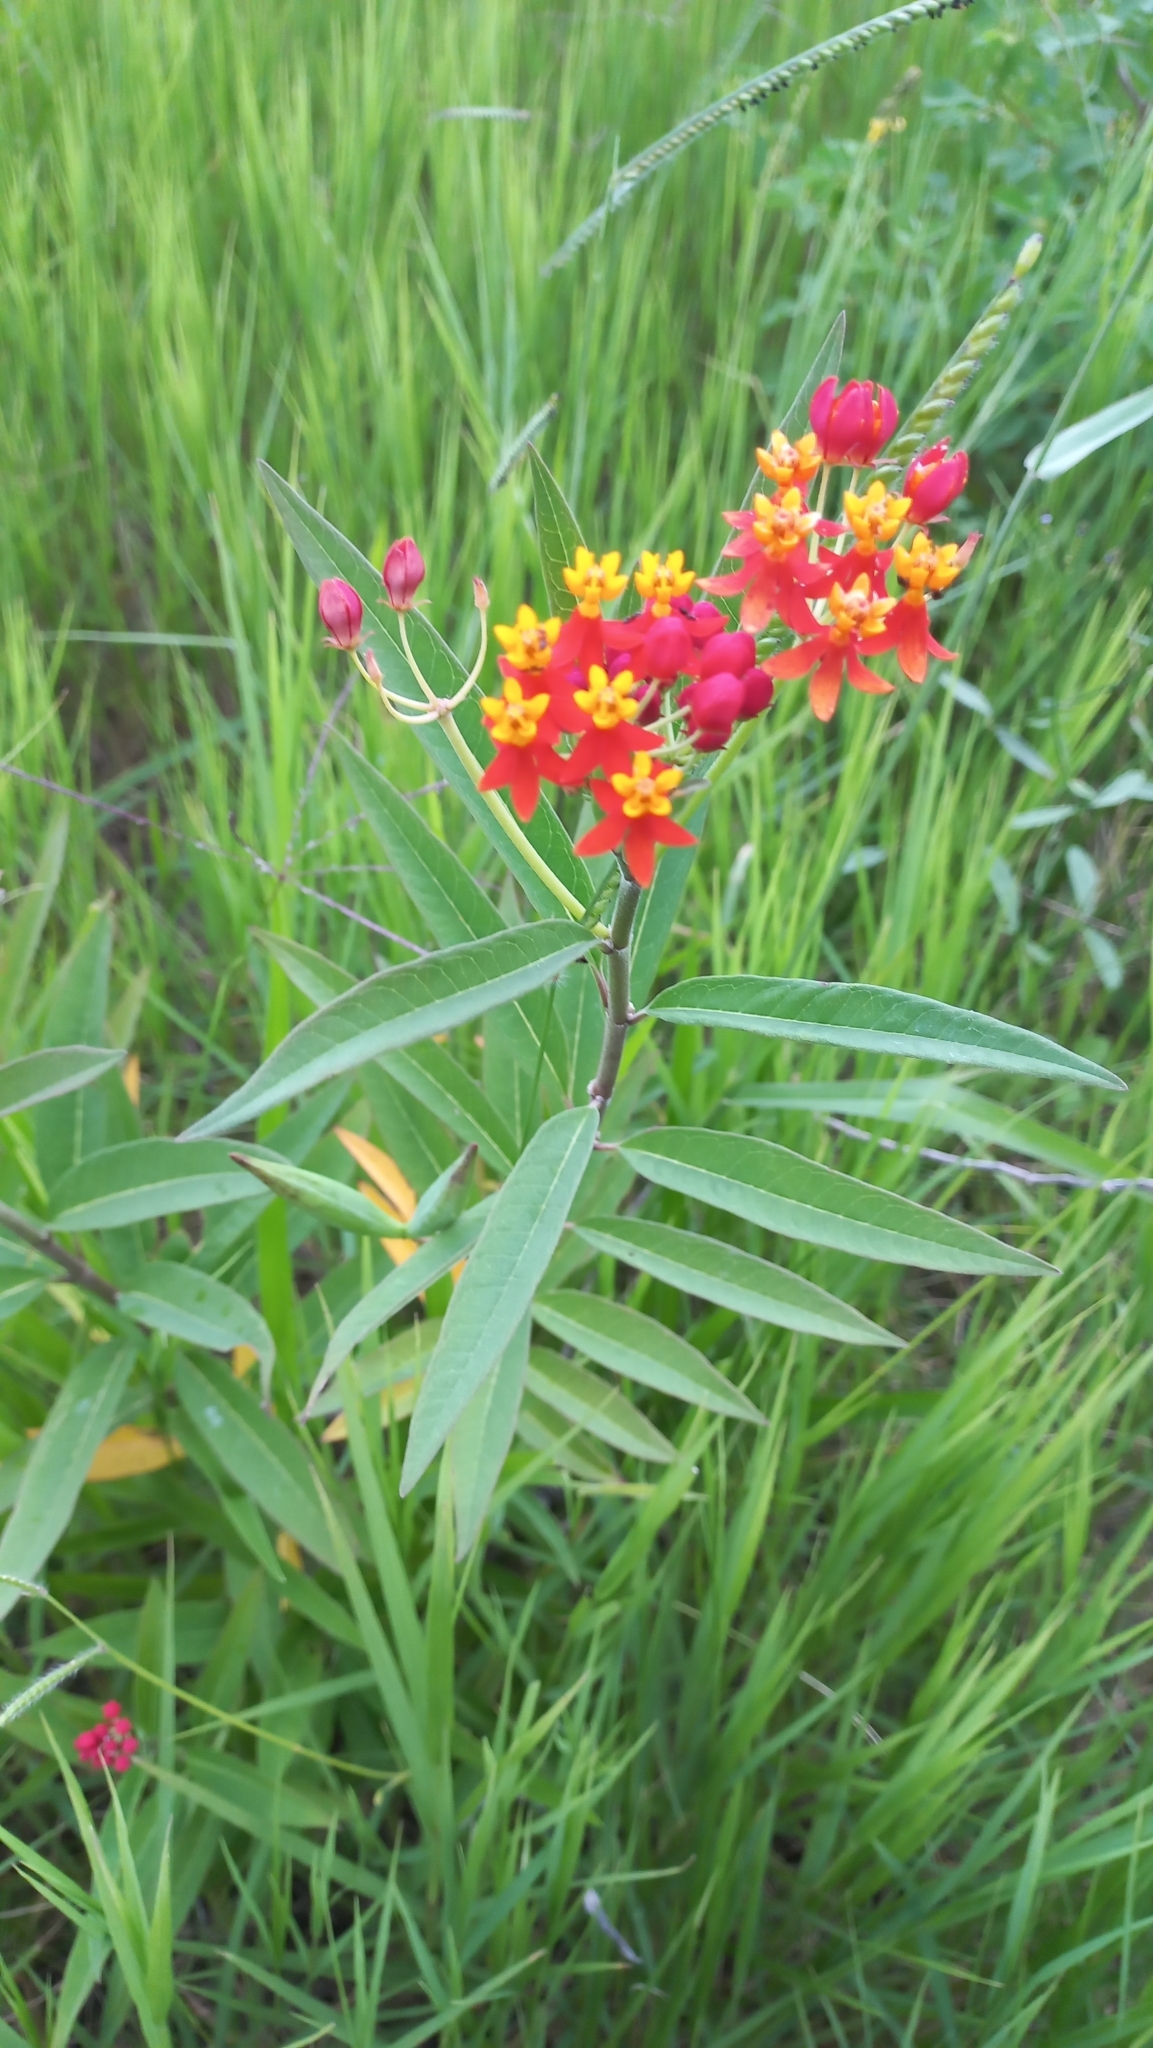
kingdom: Plantae
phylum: Tracheophyta
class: Magnoliopsida
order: Gentianales
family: Apocynaceae
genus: Asclepias
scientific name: Asclepias curassavica
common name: Bloodflower
